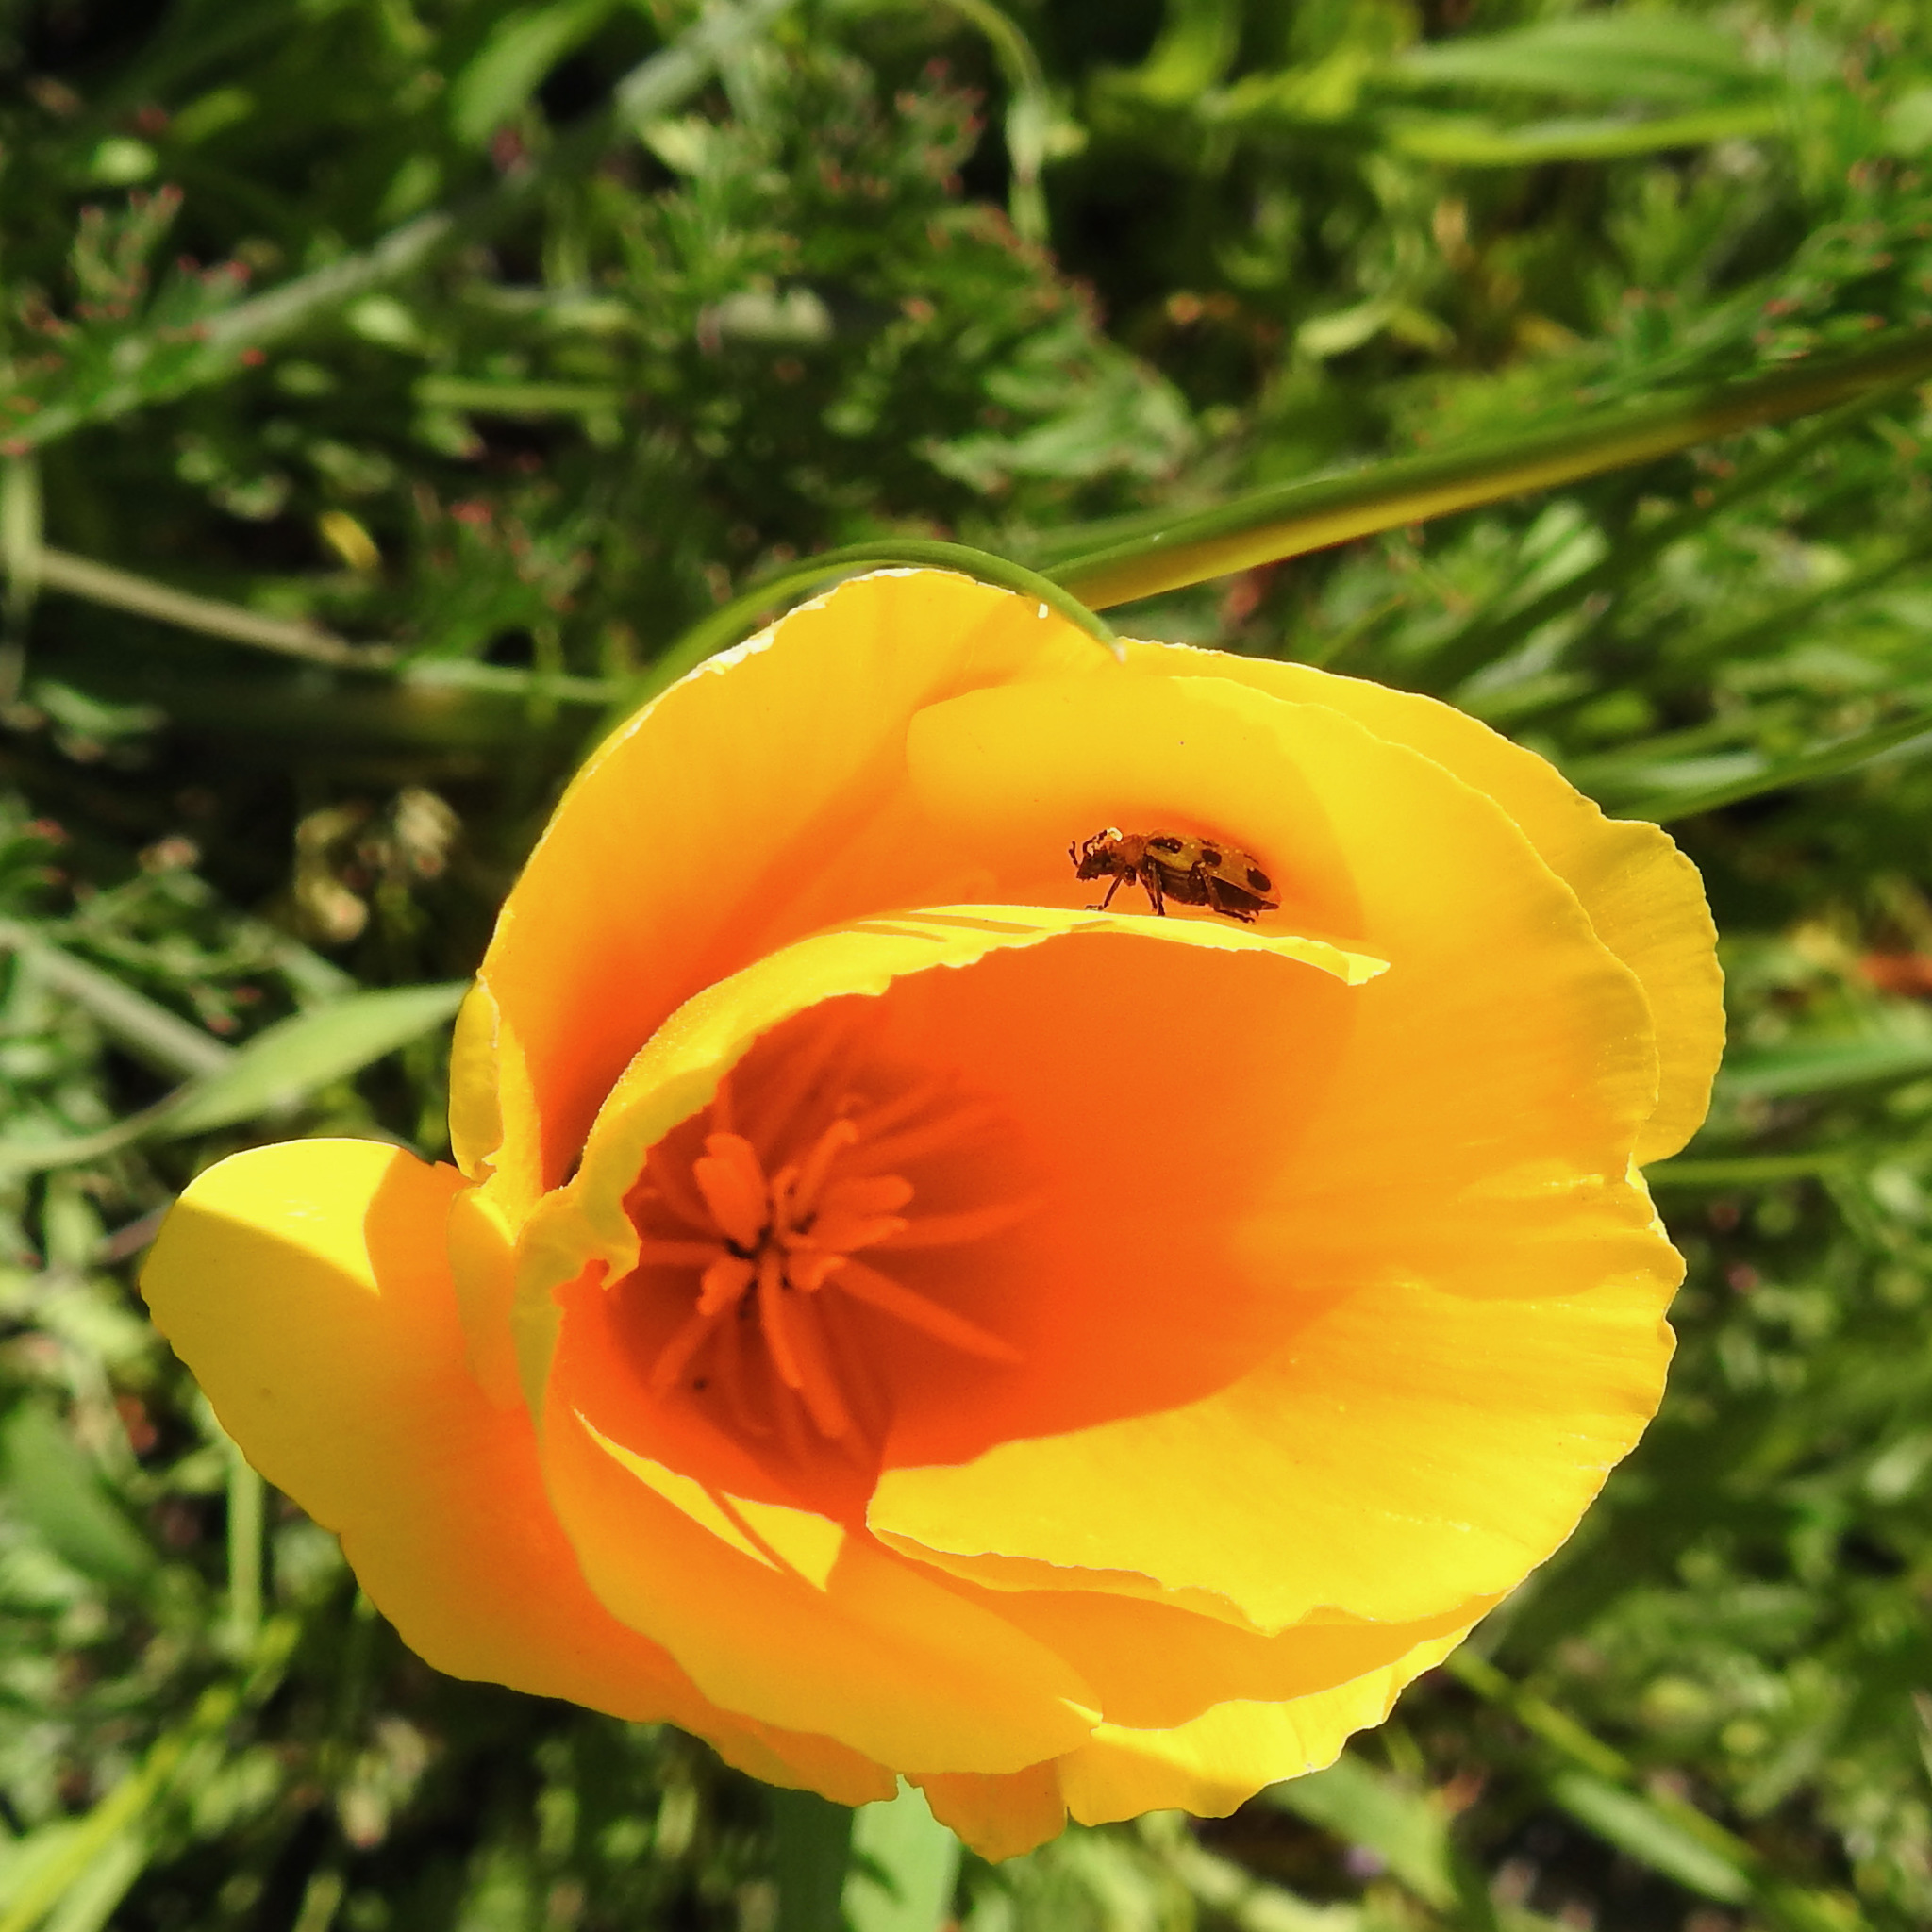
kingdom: Animalia
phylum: Arthropoda
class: Insecta
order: Coleoptera
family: Chrysomelidae
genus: Diabrotica
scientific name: Diabrotica undecimpunctata
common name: Spotted cucumber beetle
